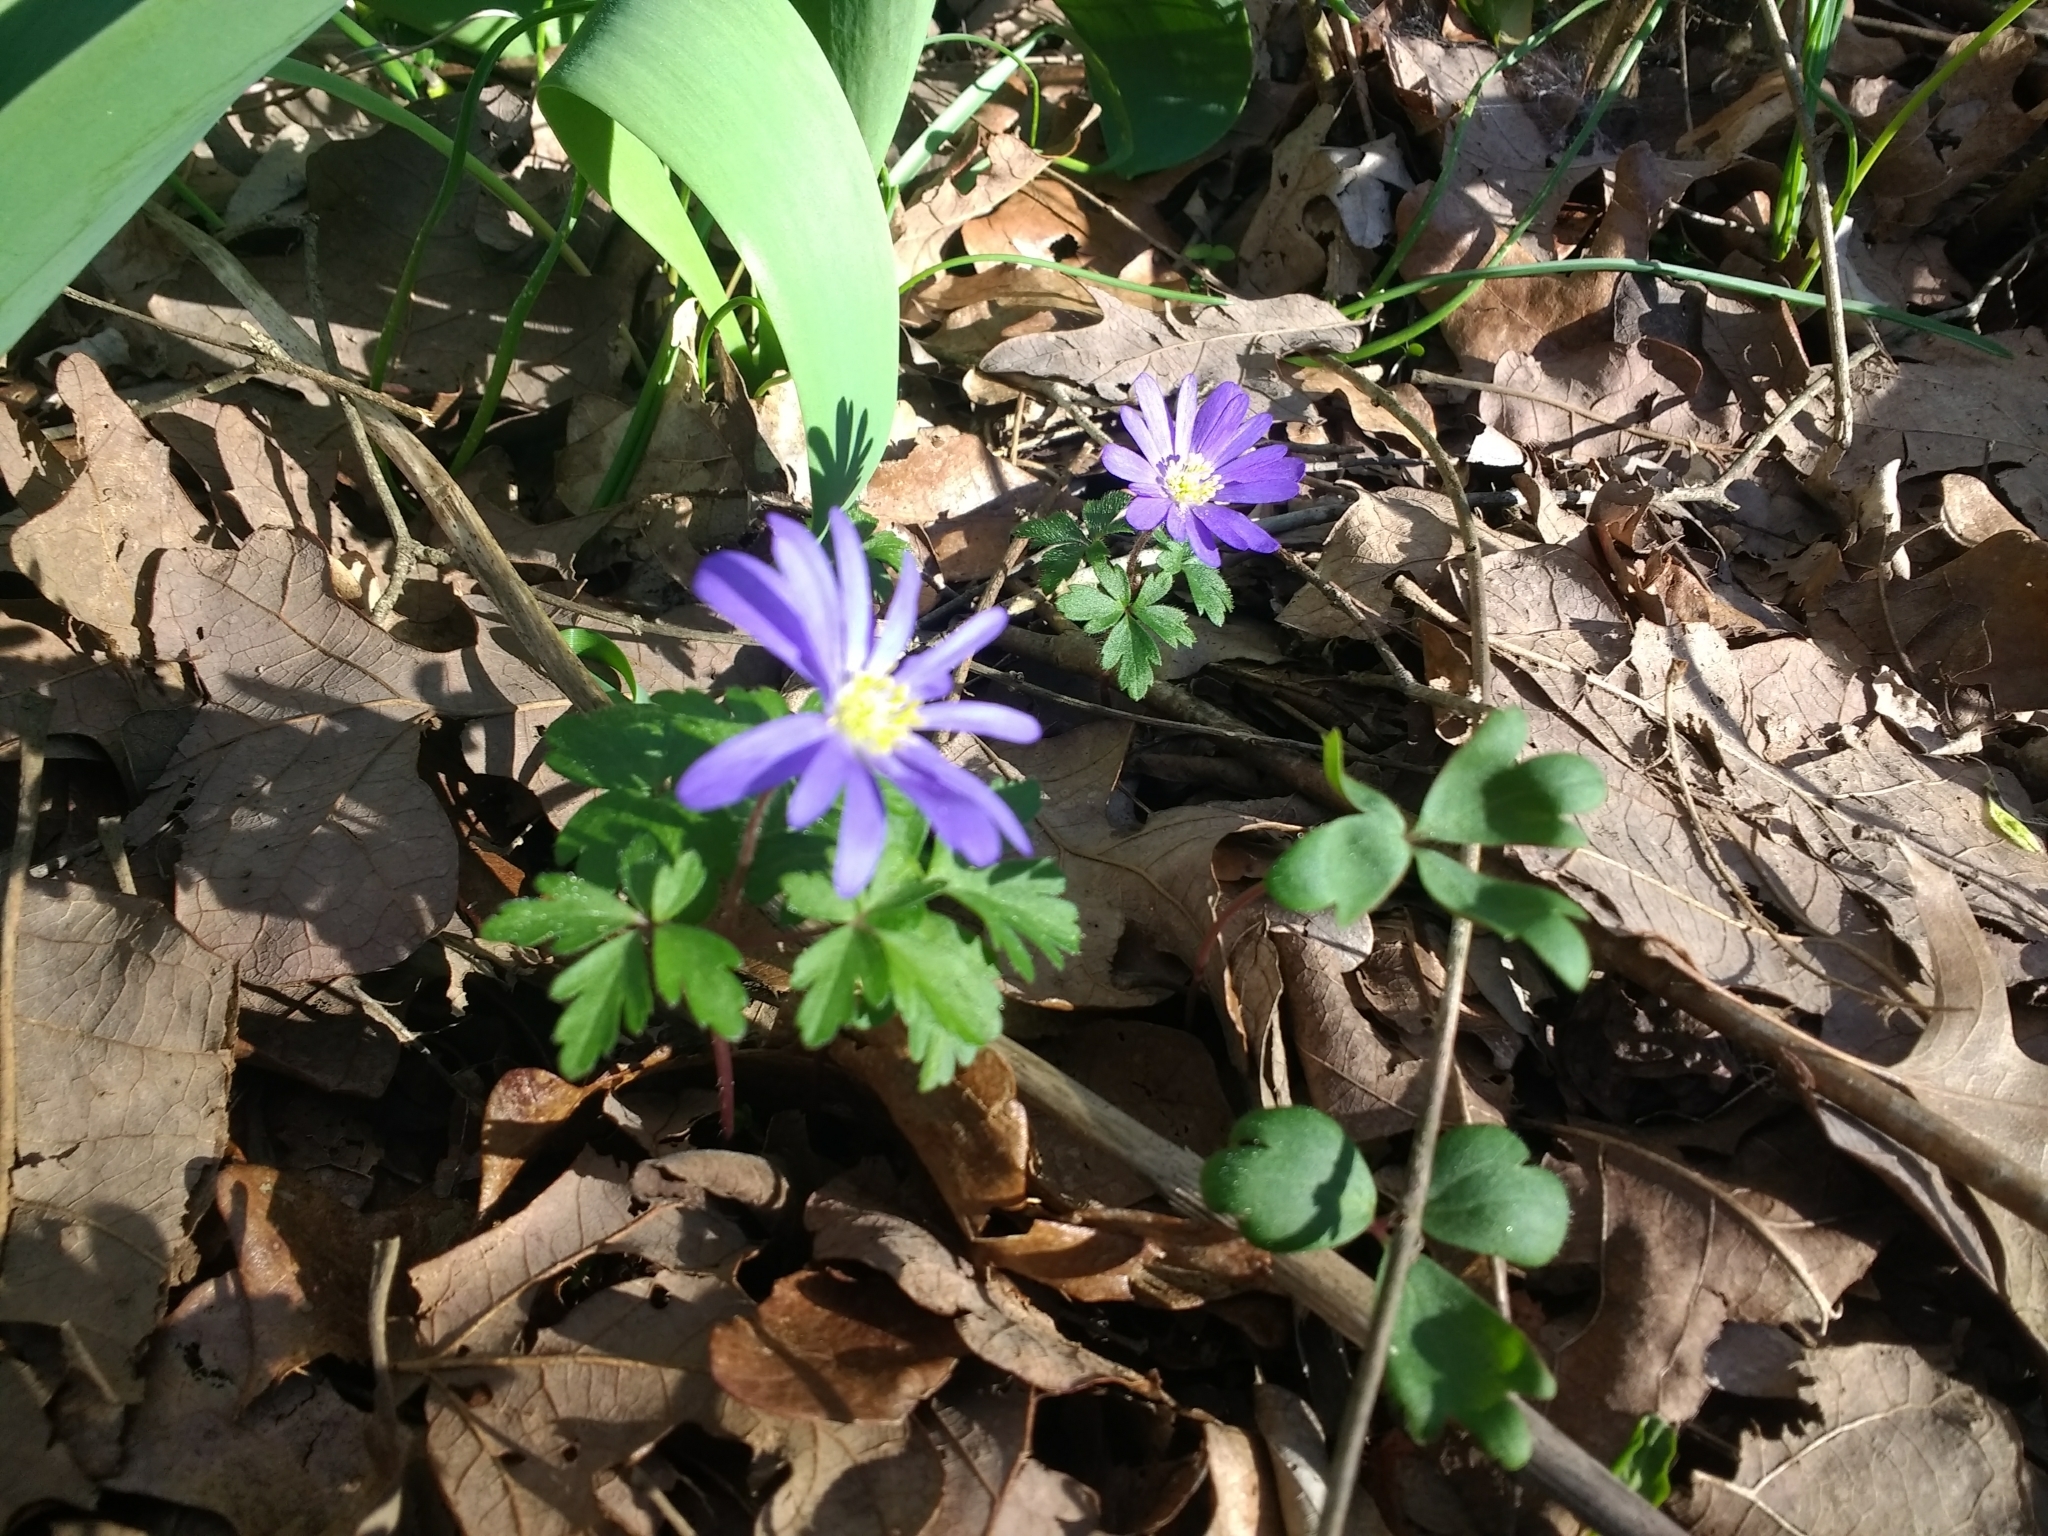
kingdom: Plantae
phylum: Tracheophyta
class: Magnoliopsida
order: Ranunculales
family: Ranunculaceae
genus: Anemone
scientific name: Anemone blanda
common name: Balkan anemone
